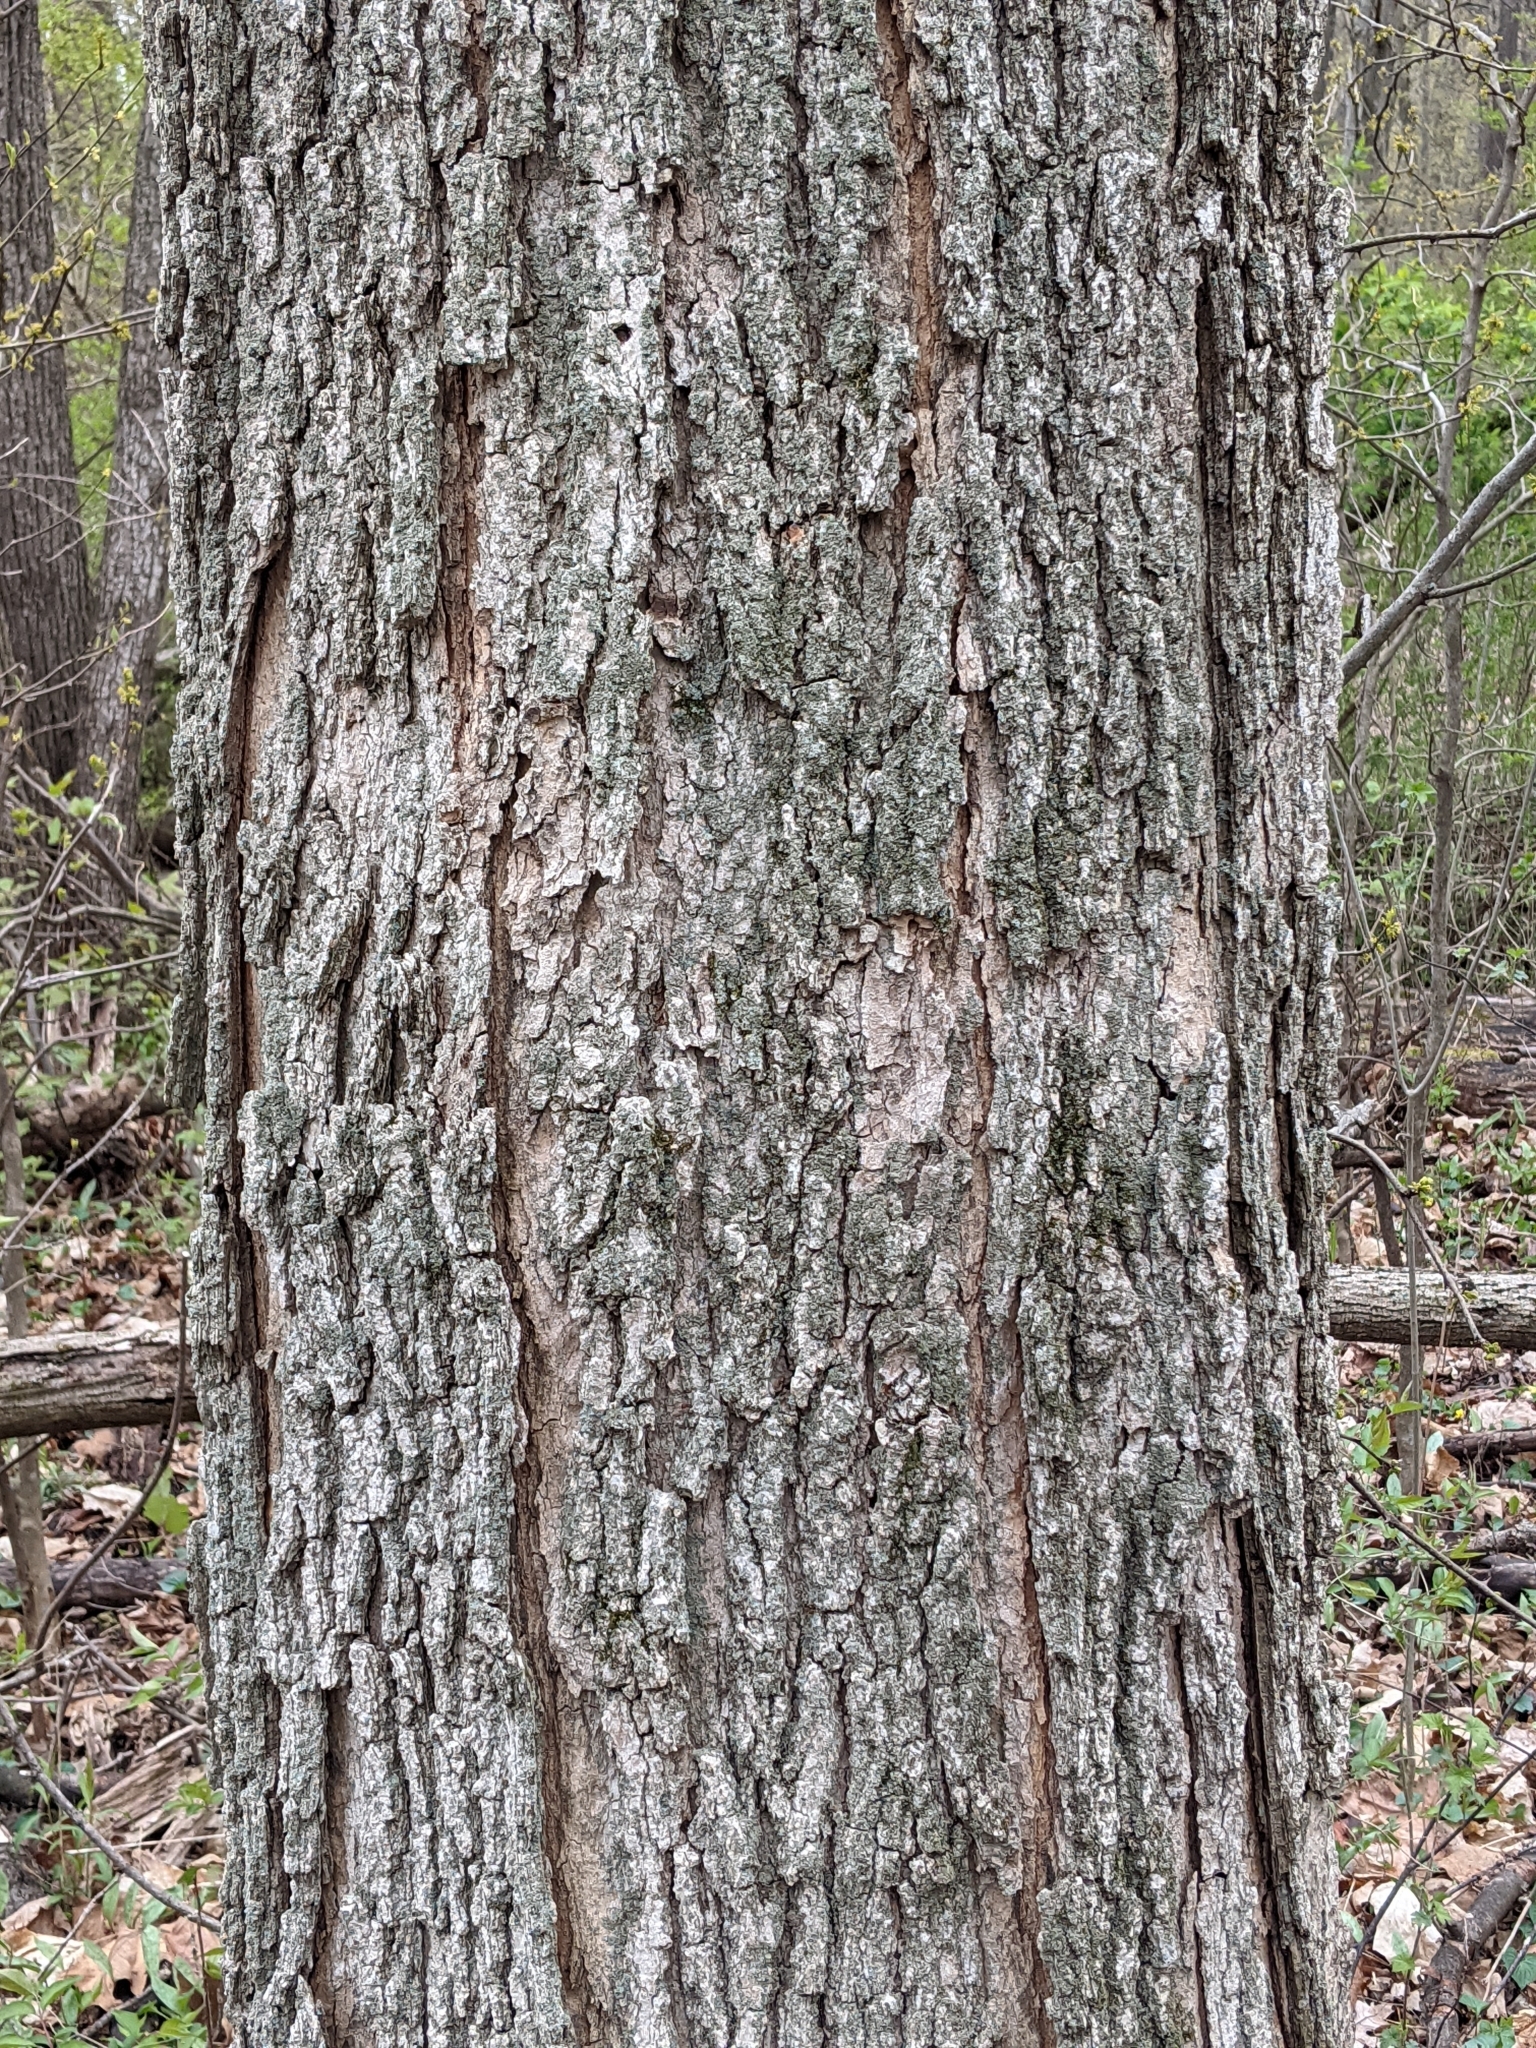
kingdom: Plantae
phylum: Tracheophyta
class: Magnoliopsida
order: Sapindales
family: Sapindaceae
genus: Acer
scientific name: Acer saccharum
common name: Sugar maple
